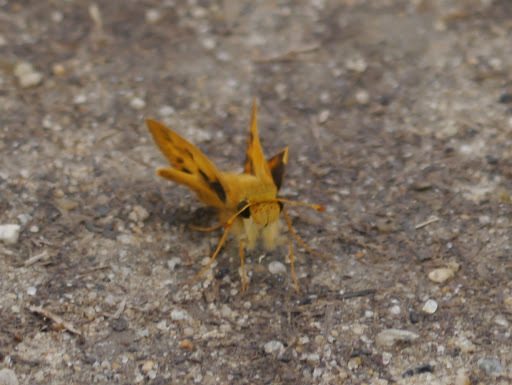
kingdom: Animalia
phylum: Arthropoda
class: Insecta
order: Lepidoptera
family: Hesperiidae
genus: Hylephila
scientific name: Hylephila phyleus
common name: Fiery skipper
